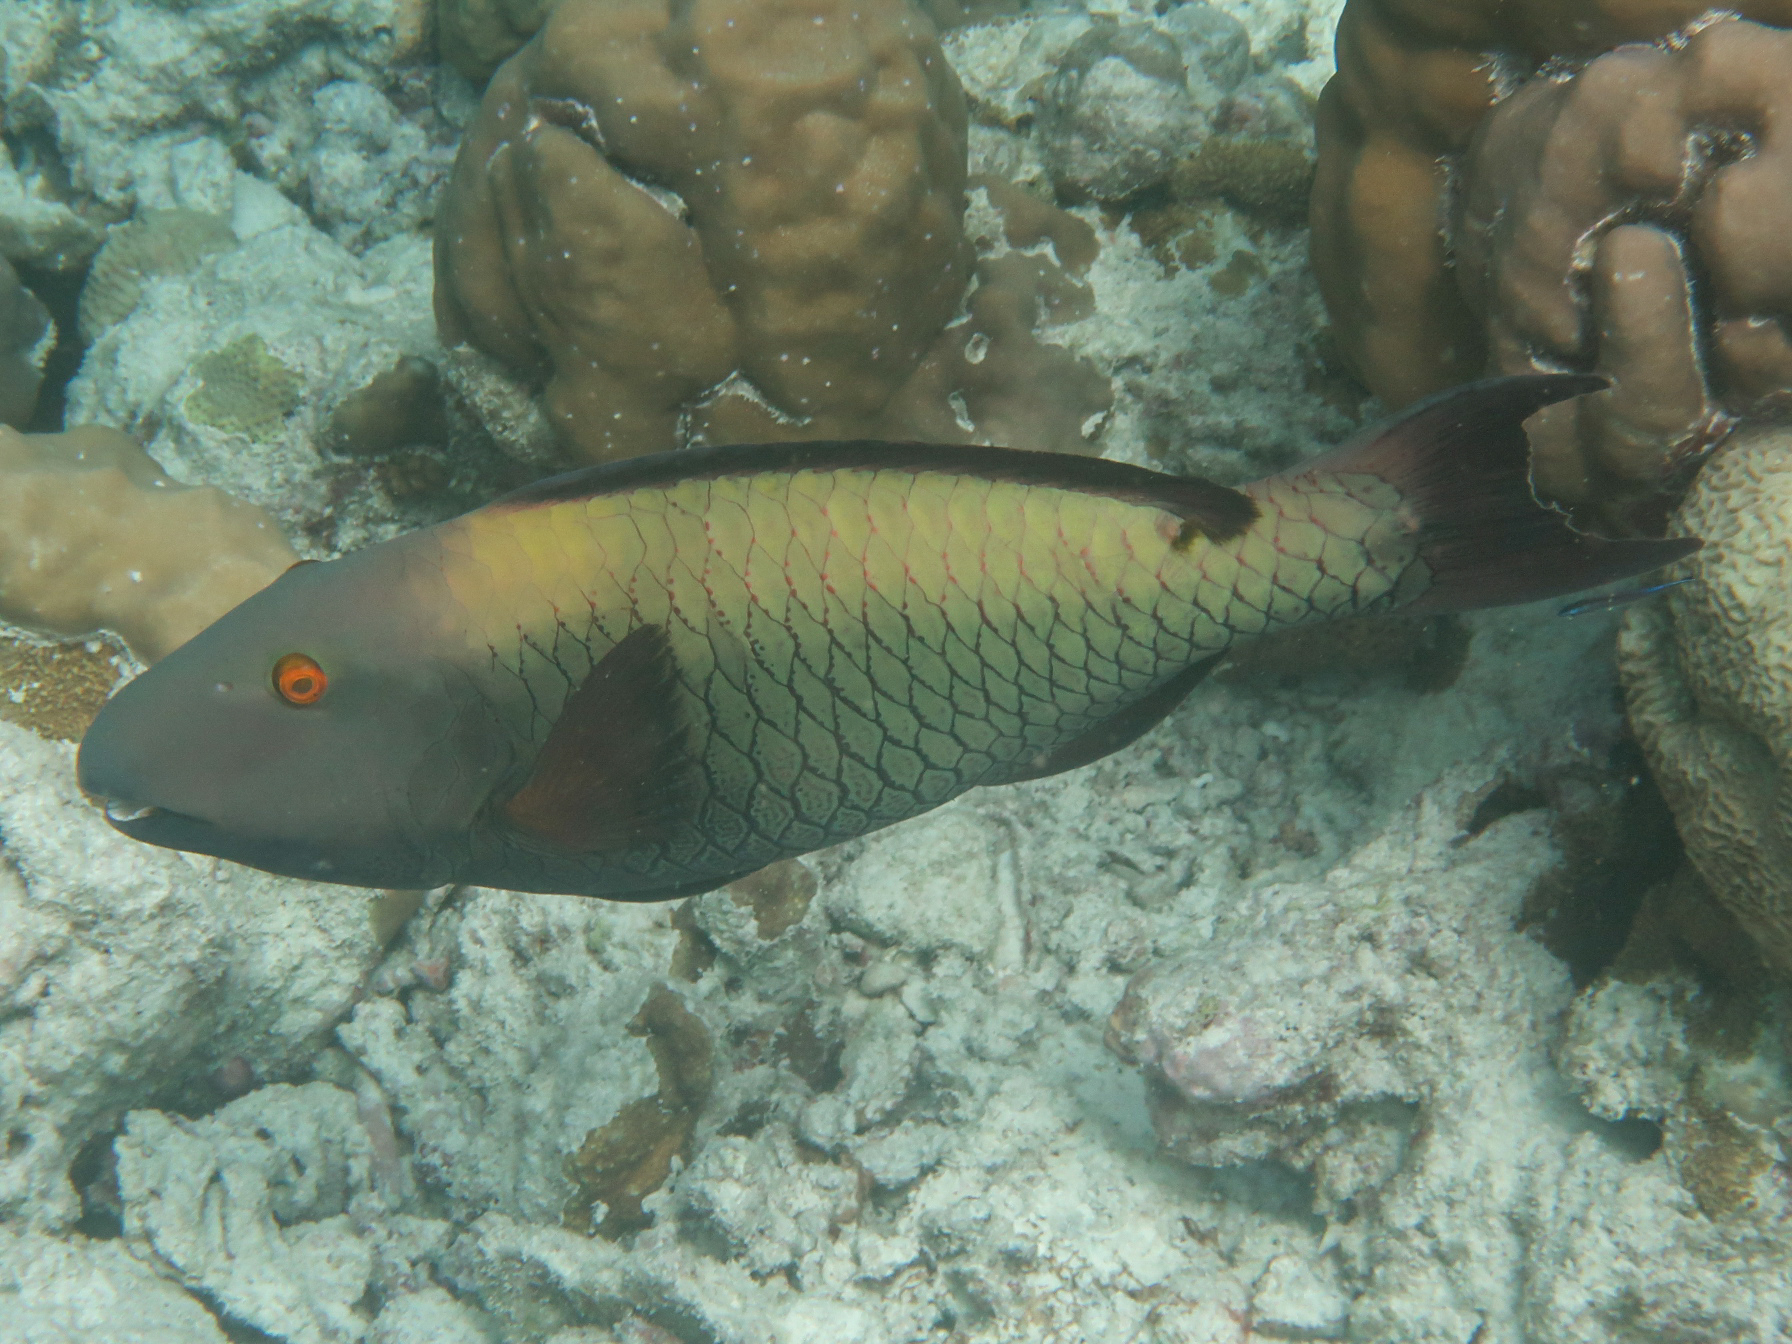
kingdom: Animalia
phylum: Chordata
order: Perciformes
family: Scaridae
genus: Cetoscarus
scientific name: Cetoscarus ocellatus
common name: Bicolor parrotfish
